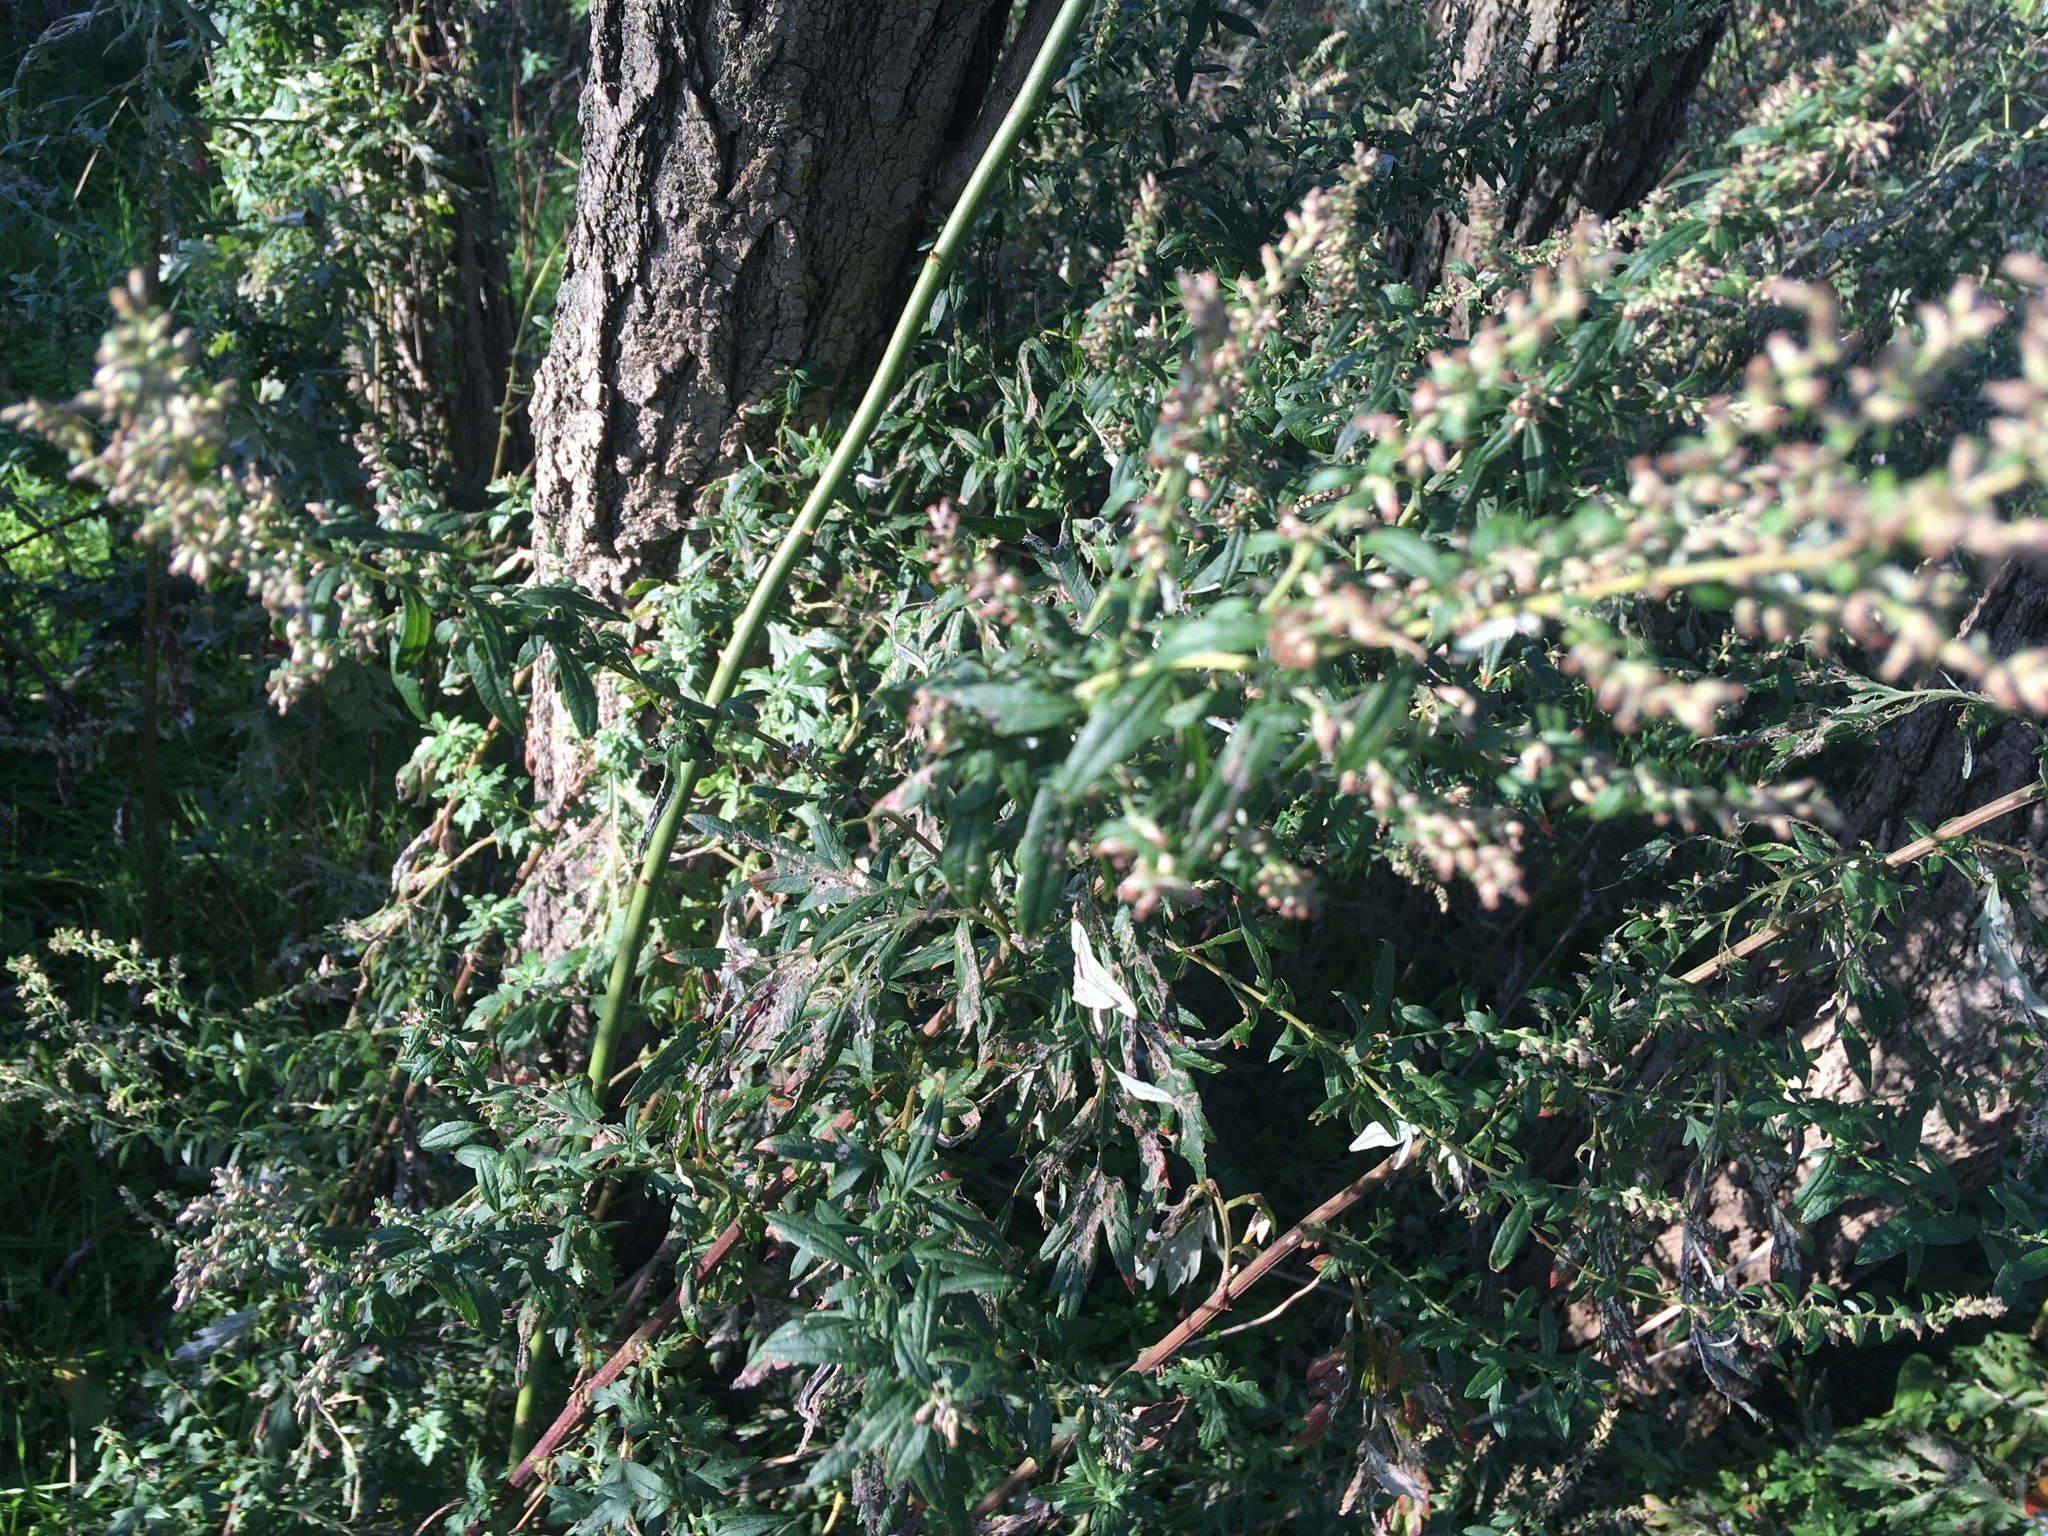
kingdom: Plantae
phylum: Tracheophyta
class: Magnoliopsida
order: Asterales
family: Asteraceae
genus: Artemisia
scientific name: Artemisia vulgaris
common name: Mugwort
